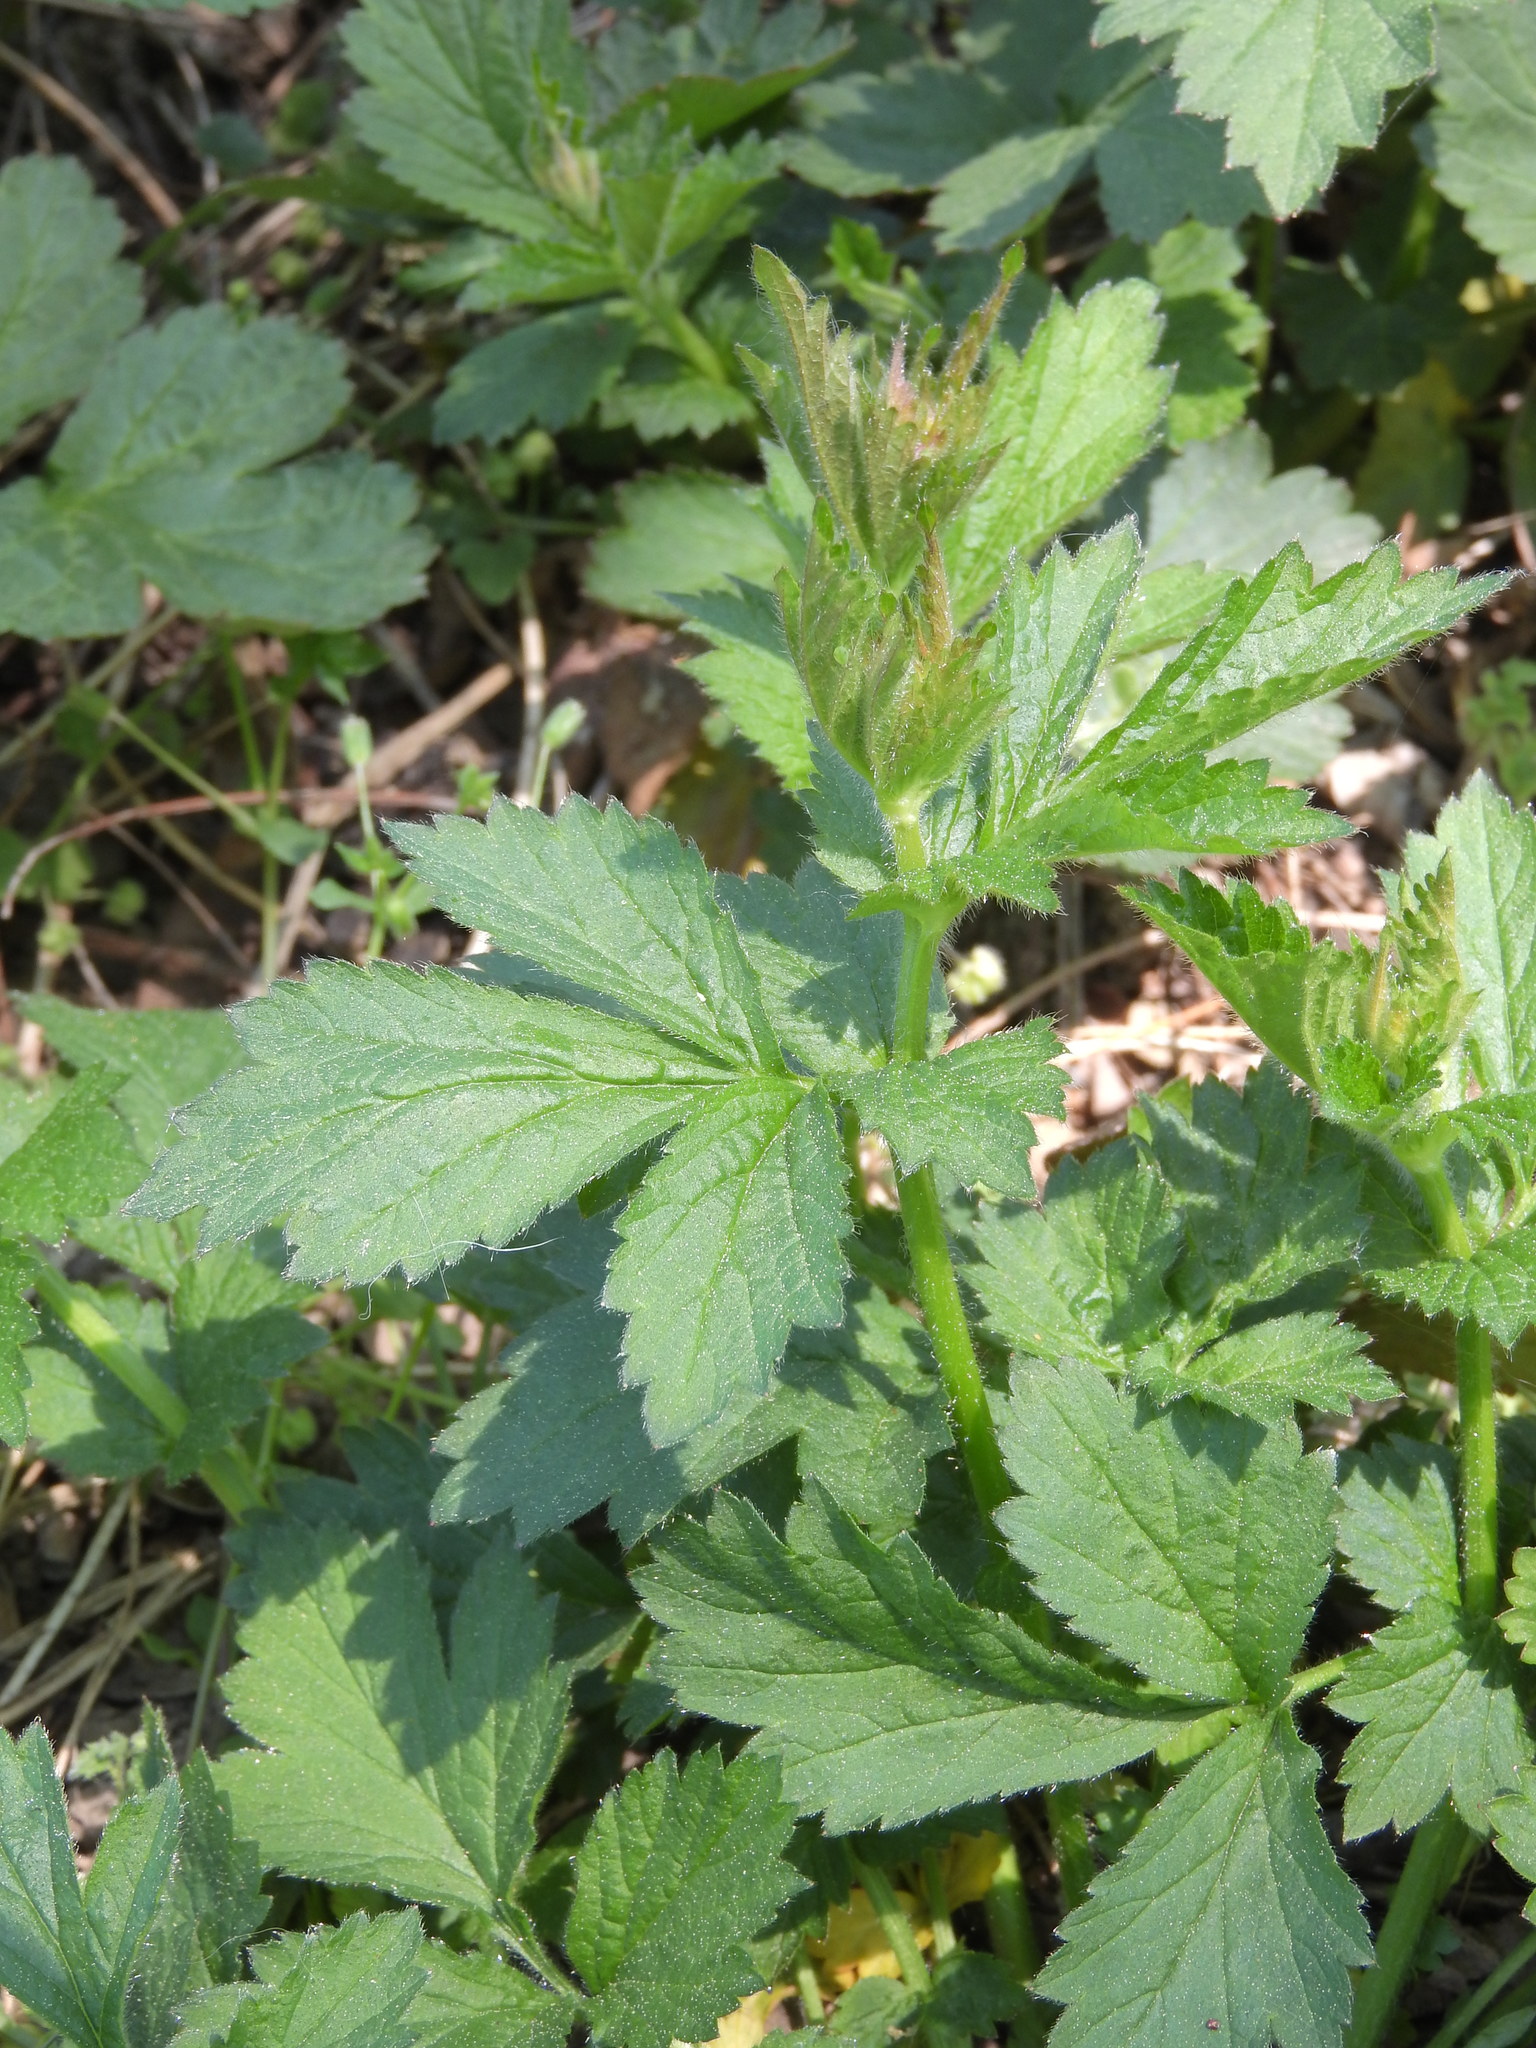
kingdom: Plantae
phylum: Tracheophyta
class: Magnoliopsida
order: Rosales
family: Rosaceae
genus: Geum
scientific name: Geum urbanum
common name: Wood avens
